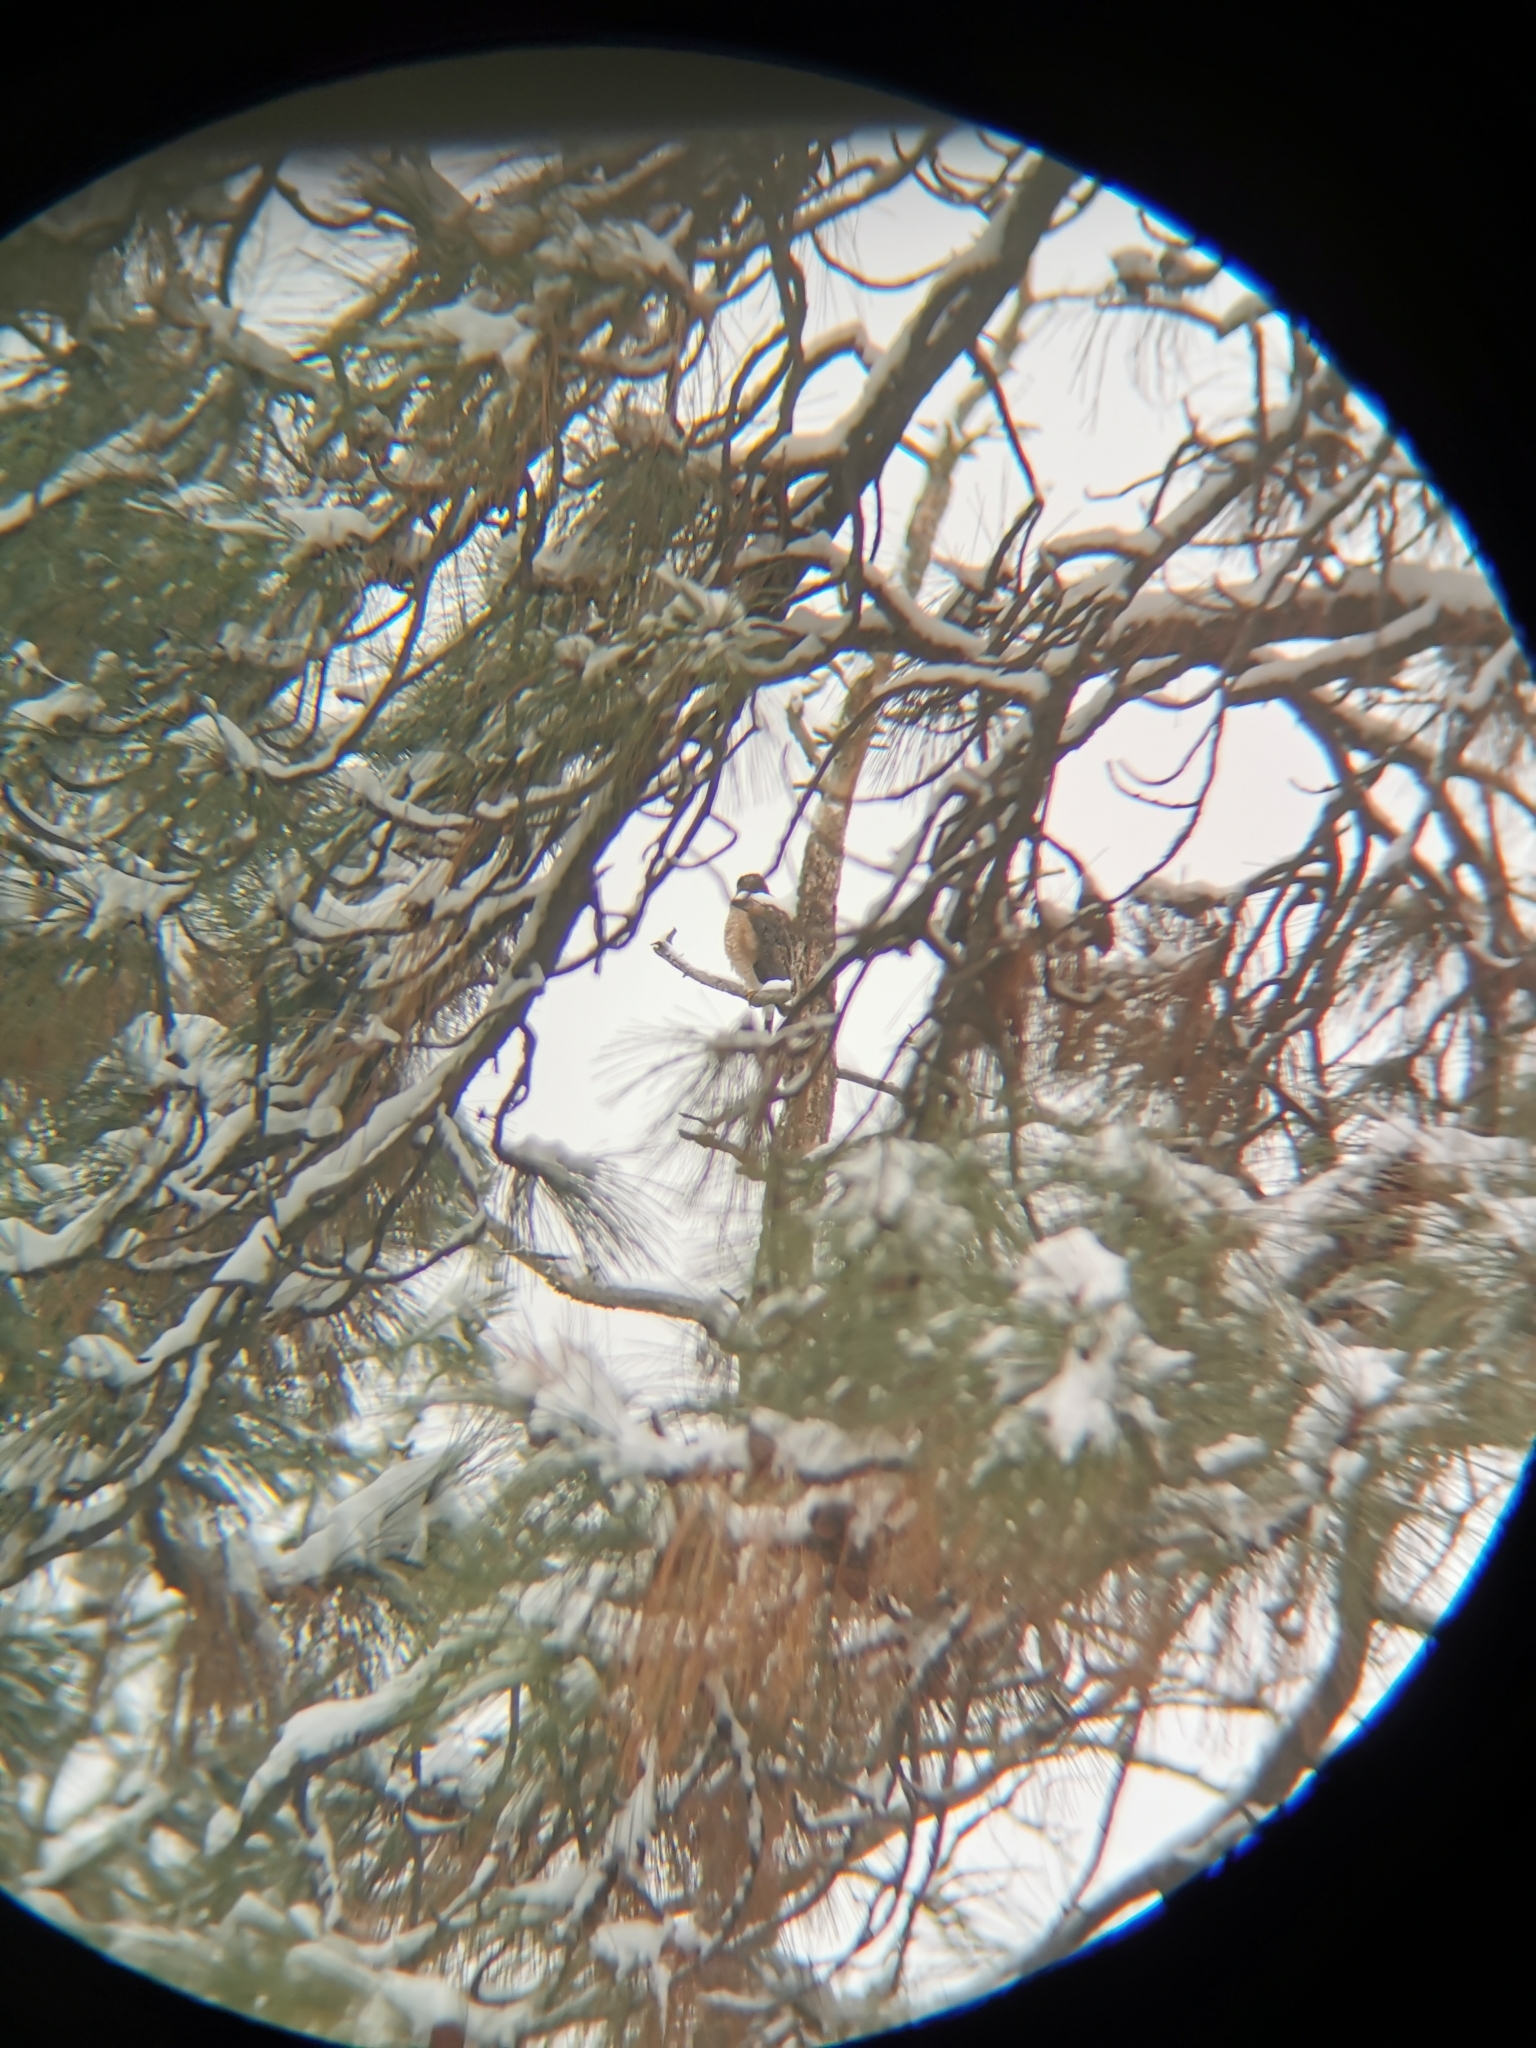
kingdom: Animalia
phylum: Chordata
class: Aves
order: Accipitriformes
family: Accipitridae
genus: Accipiter
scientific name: Accipiter cooperii
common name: Cooper's hawk
